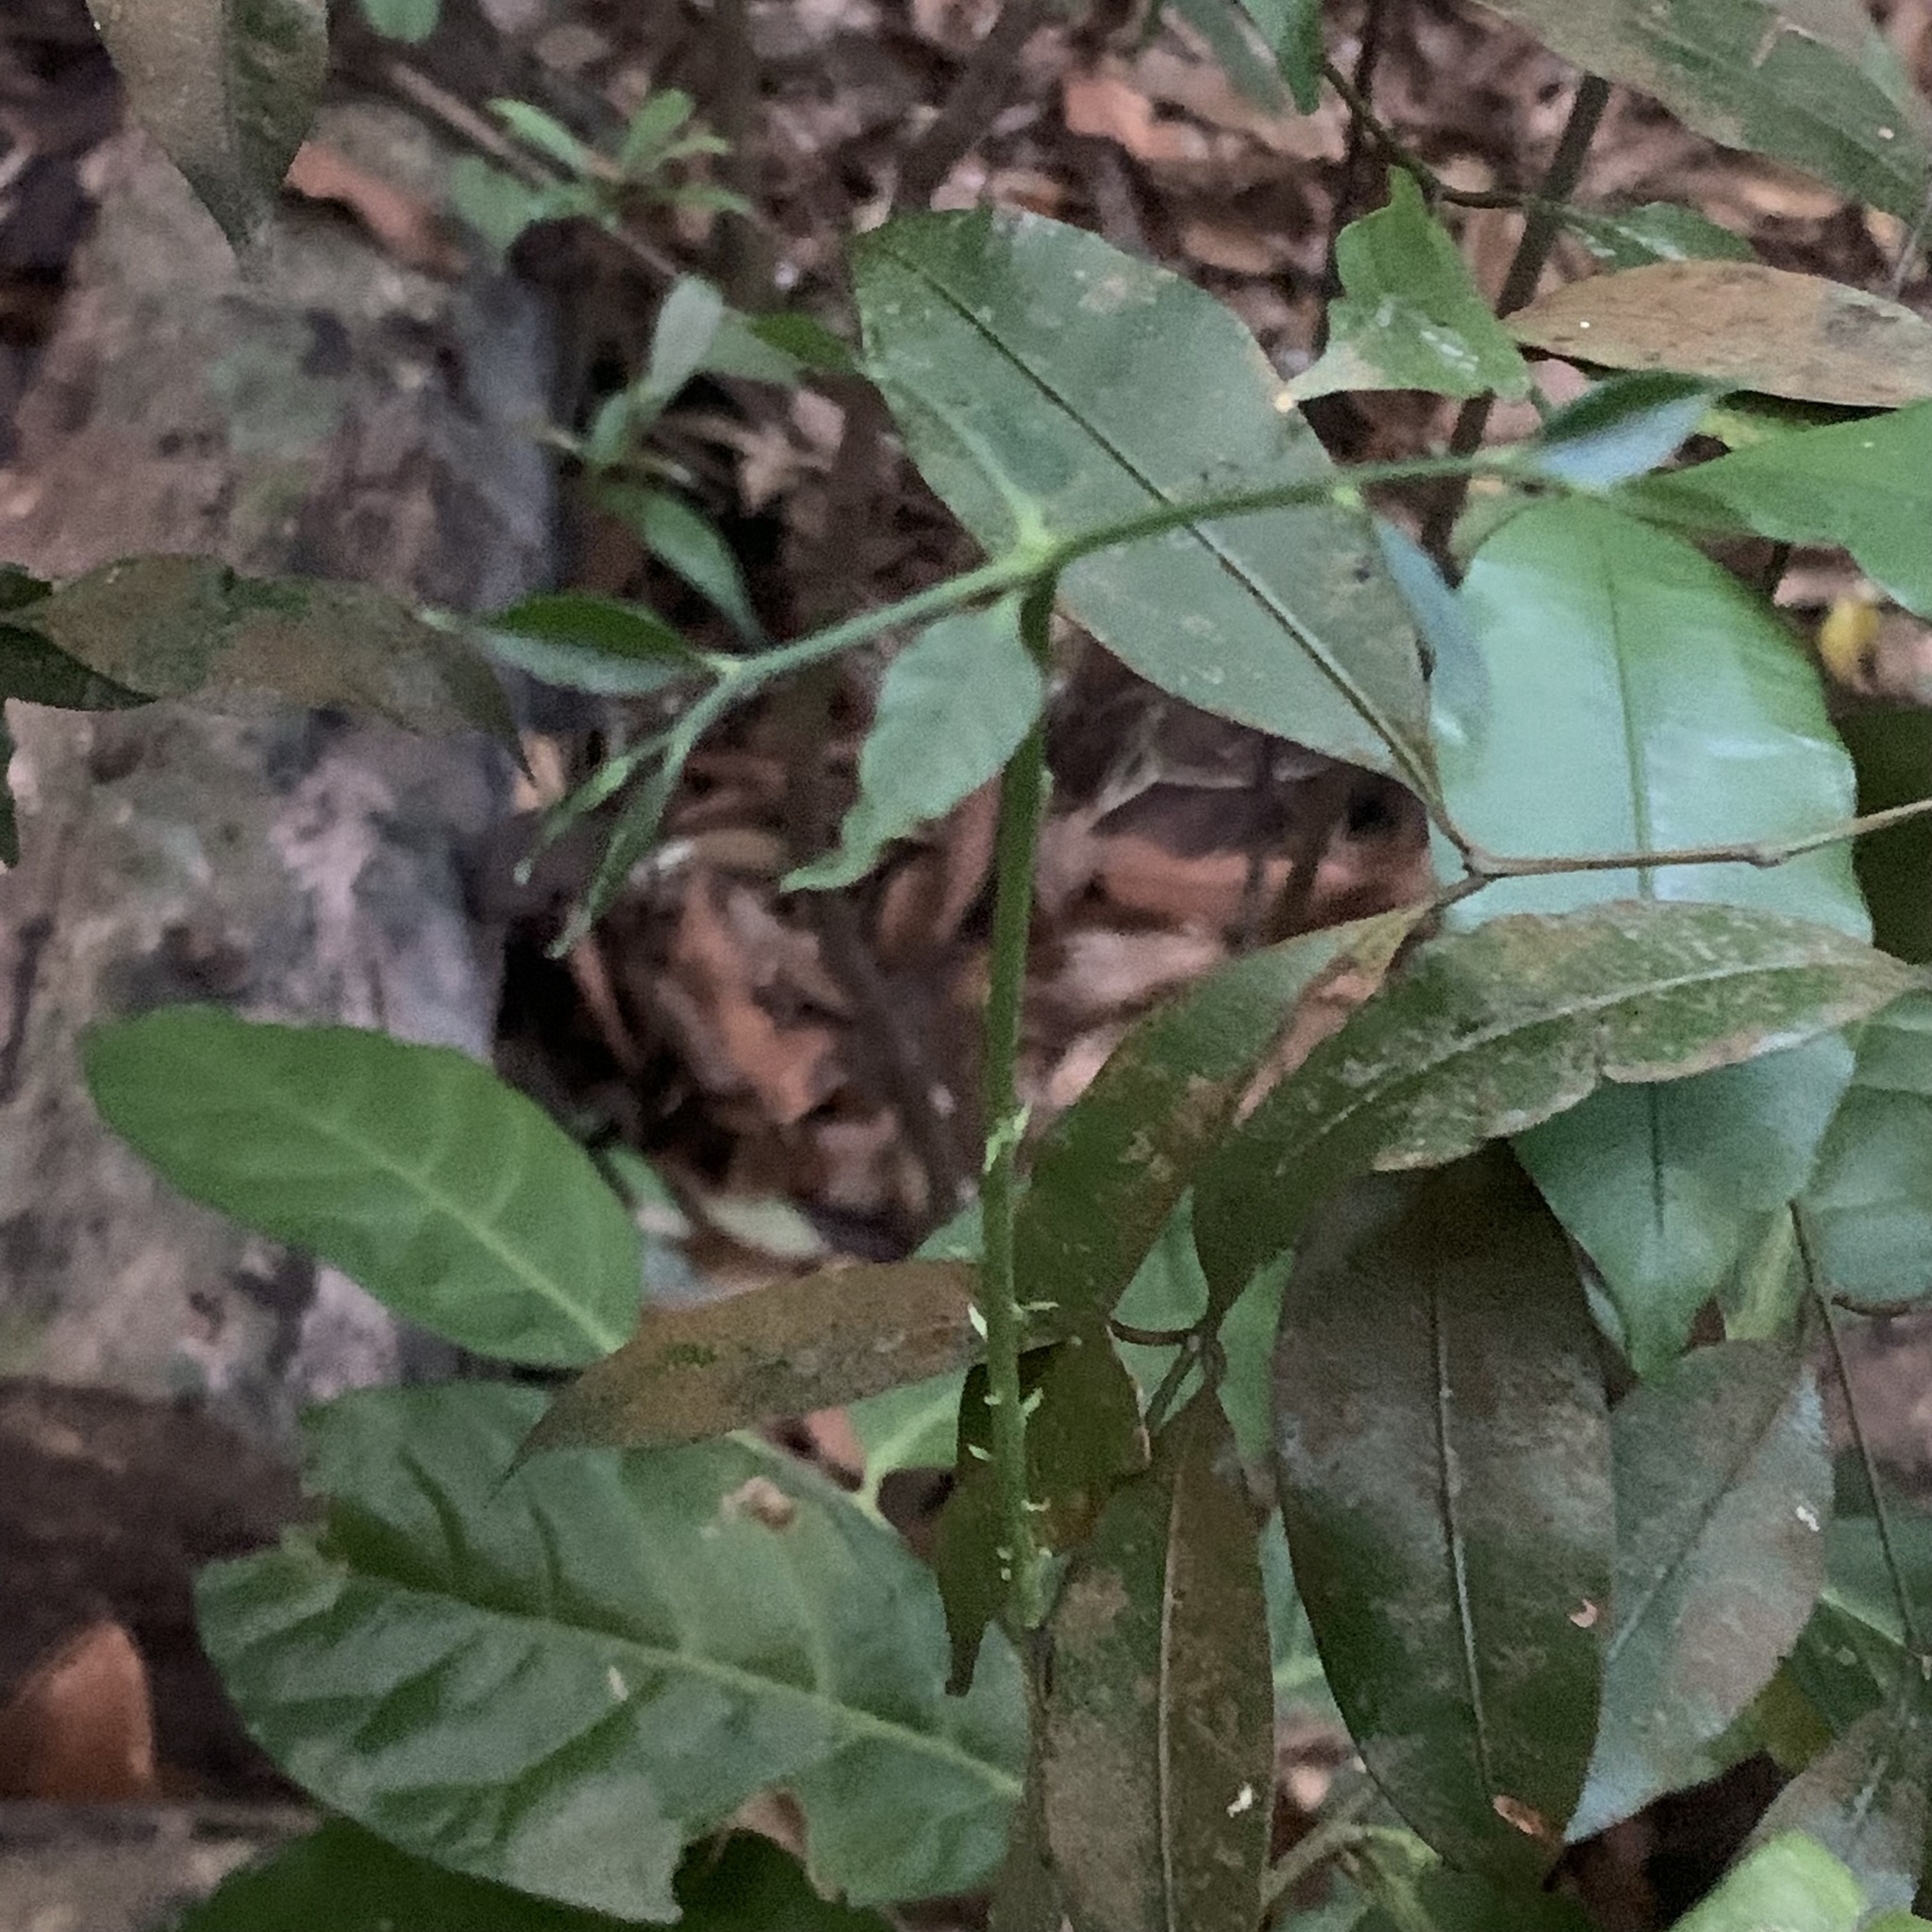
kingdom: Plantae
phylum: Tracheophyta
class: Magnoliopsida
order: Santalales
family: Opiliaceae
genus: Lepionurus
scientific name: Lepionurus sylvestris
